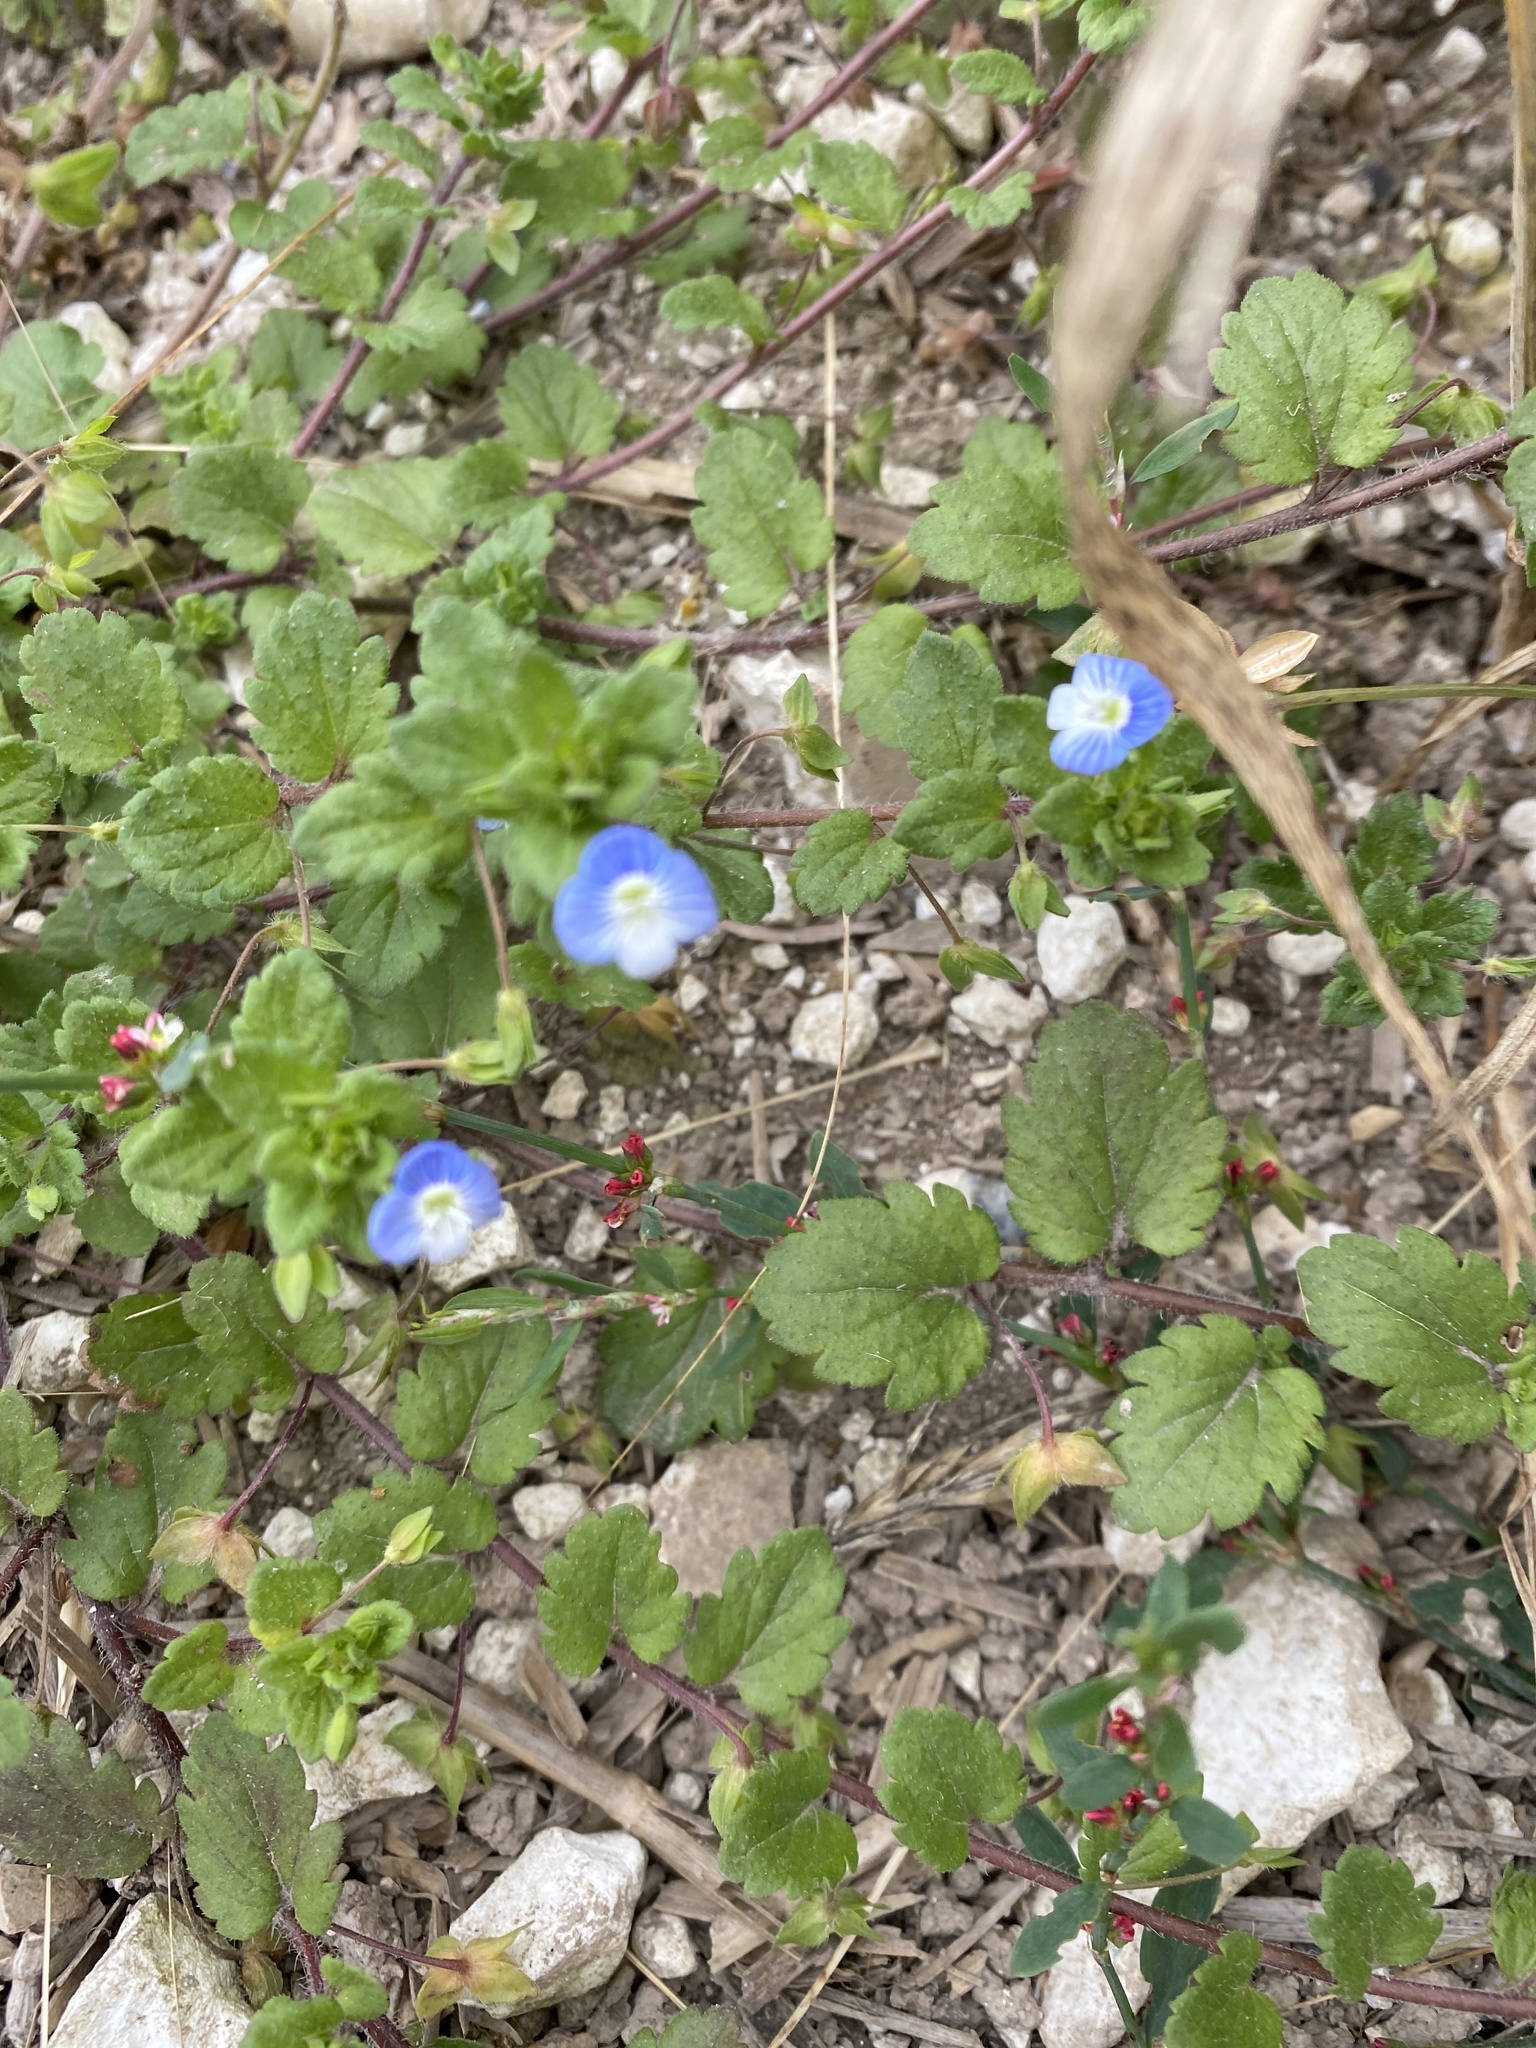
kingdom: Plantae
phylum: Tracheophyta
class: Magnoliopsida
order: Lamiales
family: Plantaginaceae
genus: Veronica
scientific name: Veronica persica
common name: Common field-speedwell
